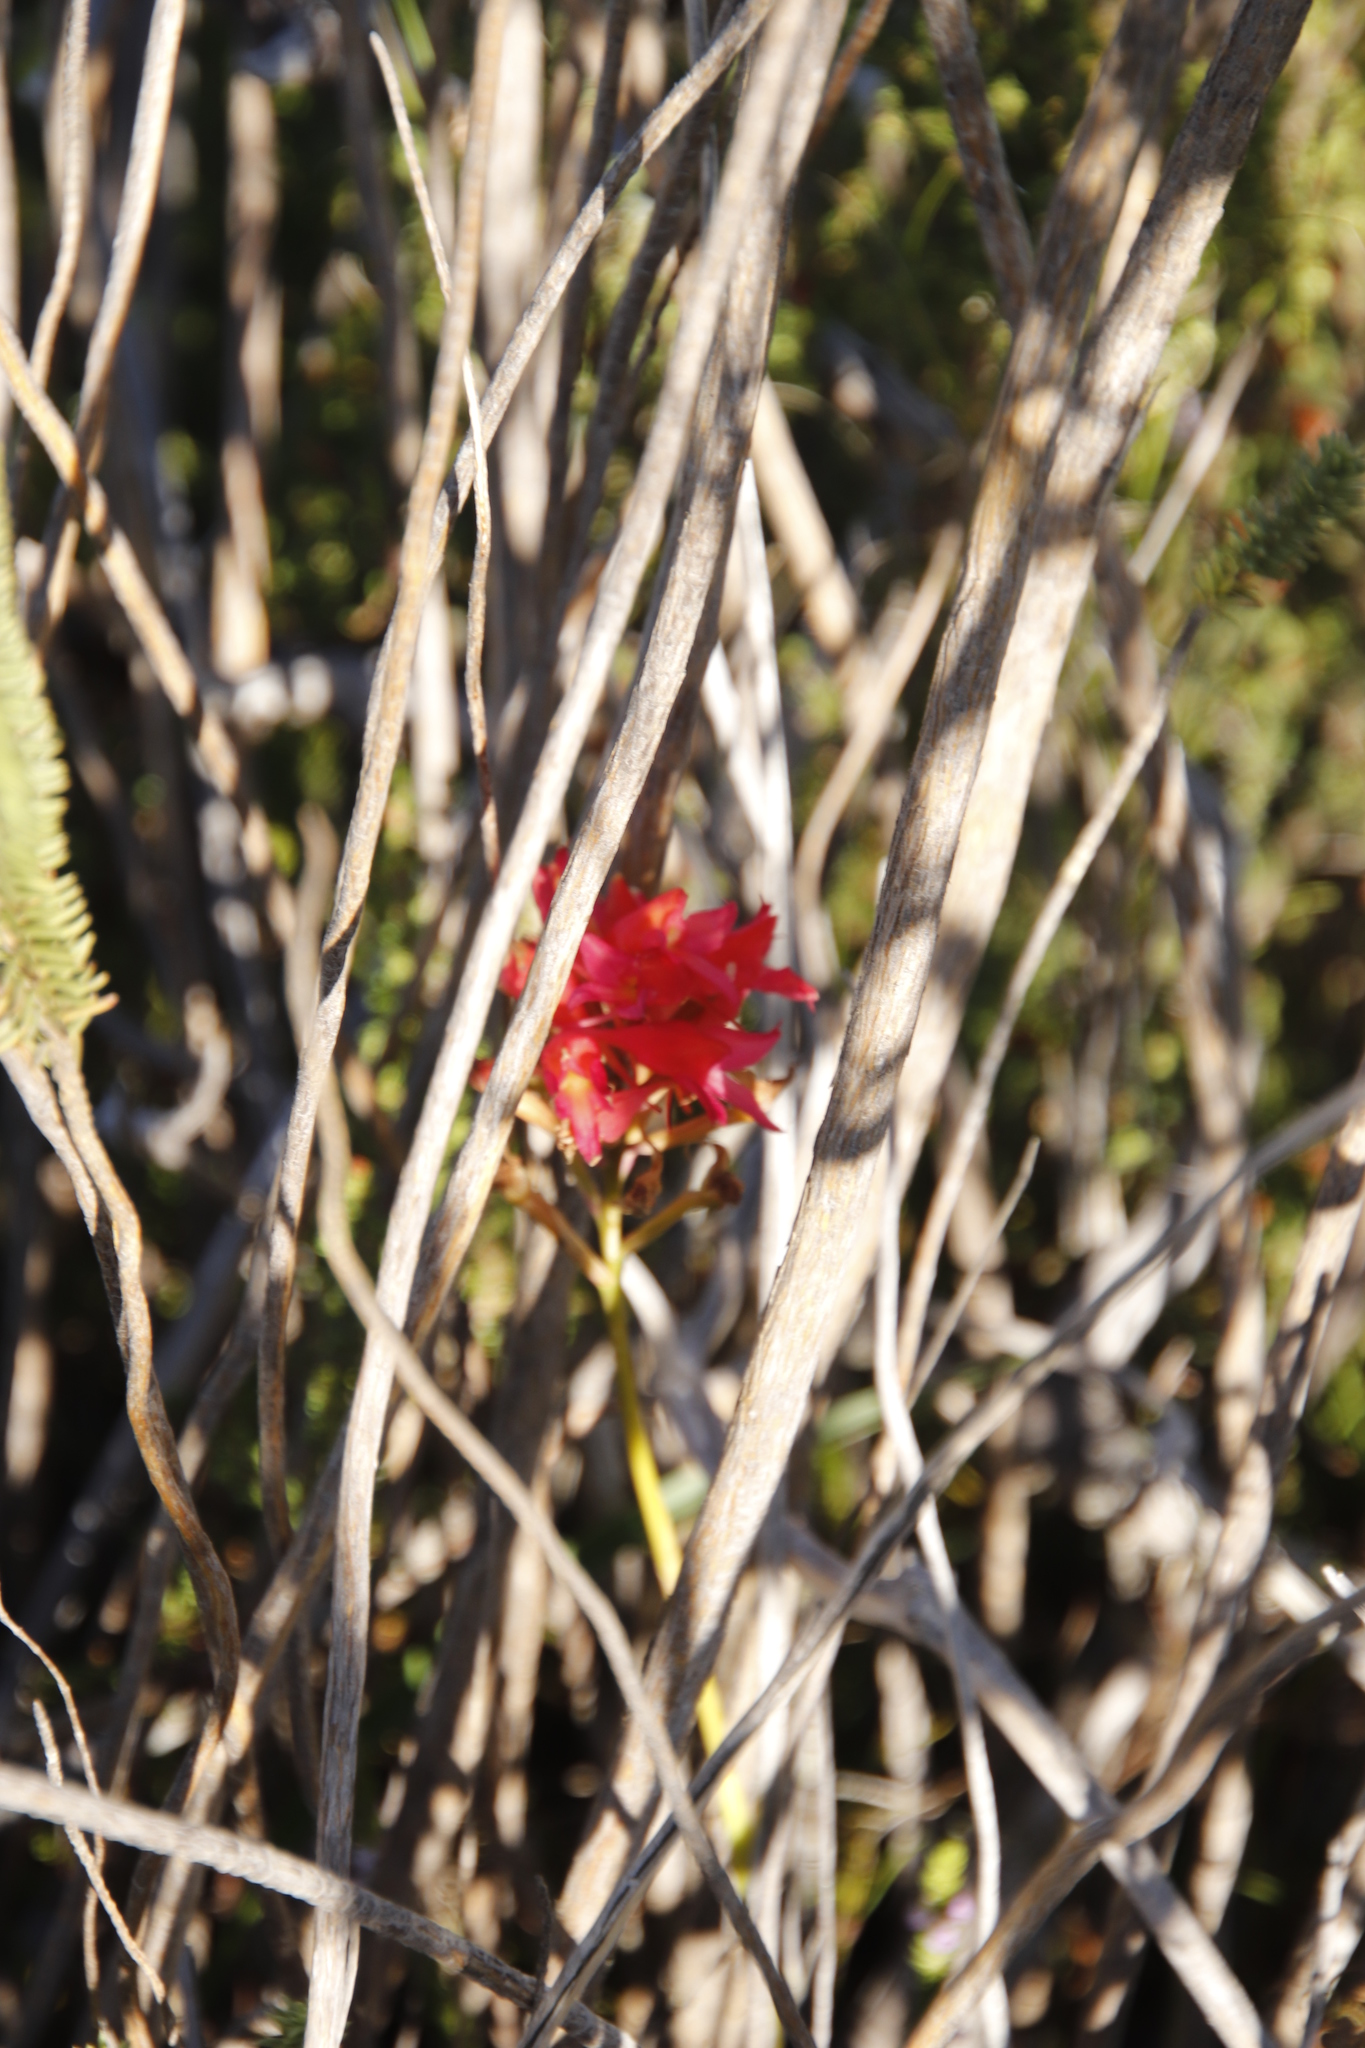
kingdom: Plantae
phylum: Tracheophyta
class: Liliopsida
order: Asparagales
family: Orchidaceae
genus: Disa
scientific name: Disa ferruginea
